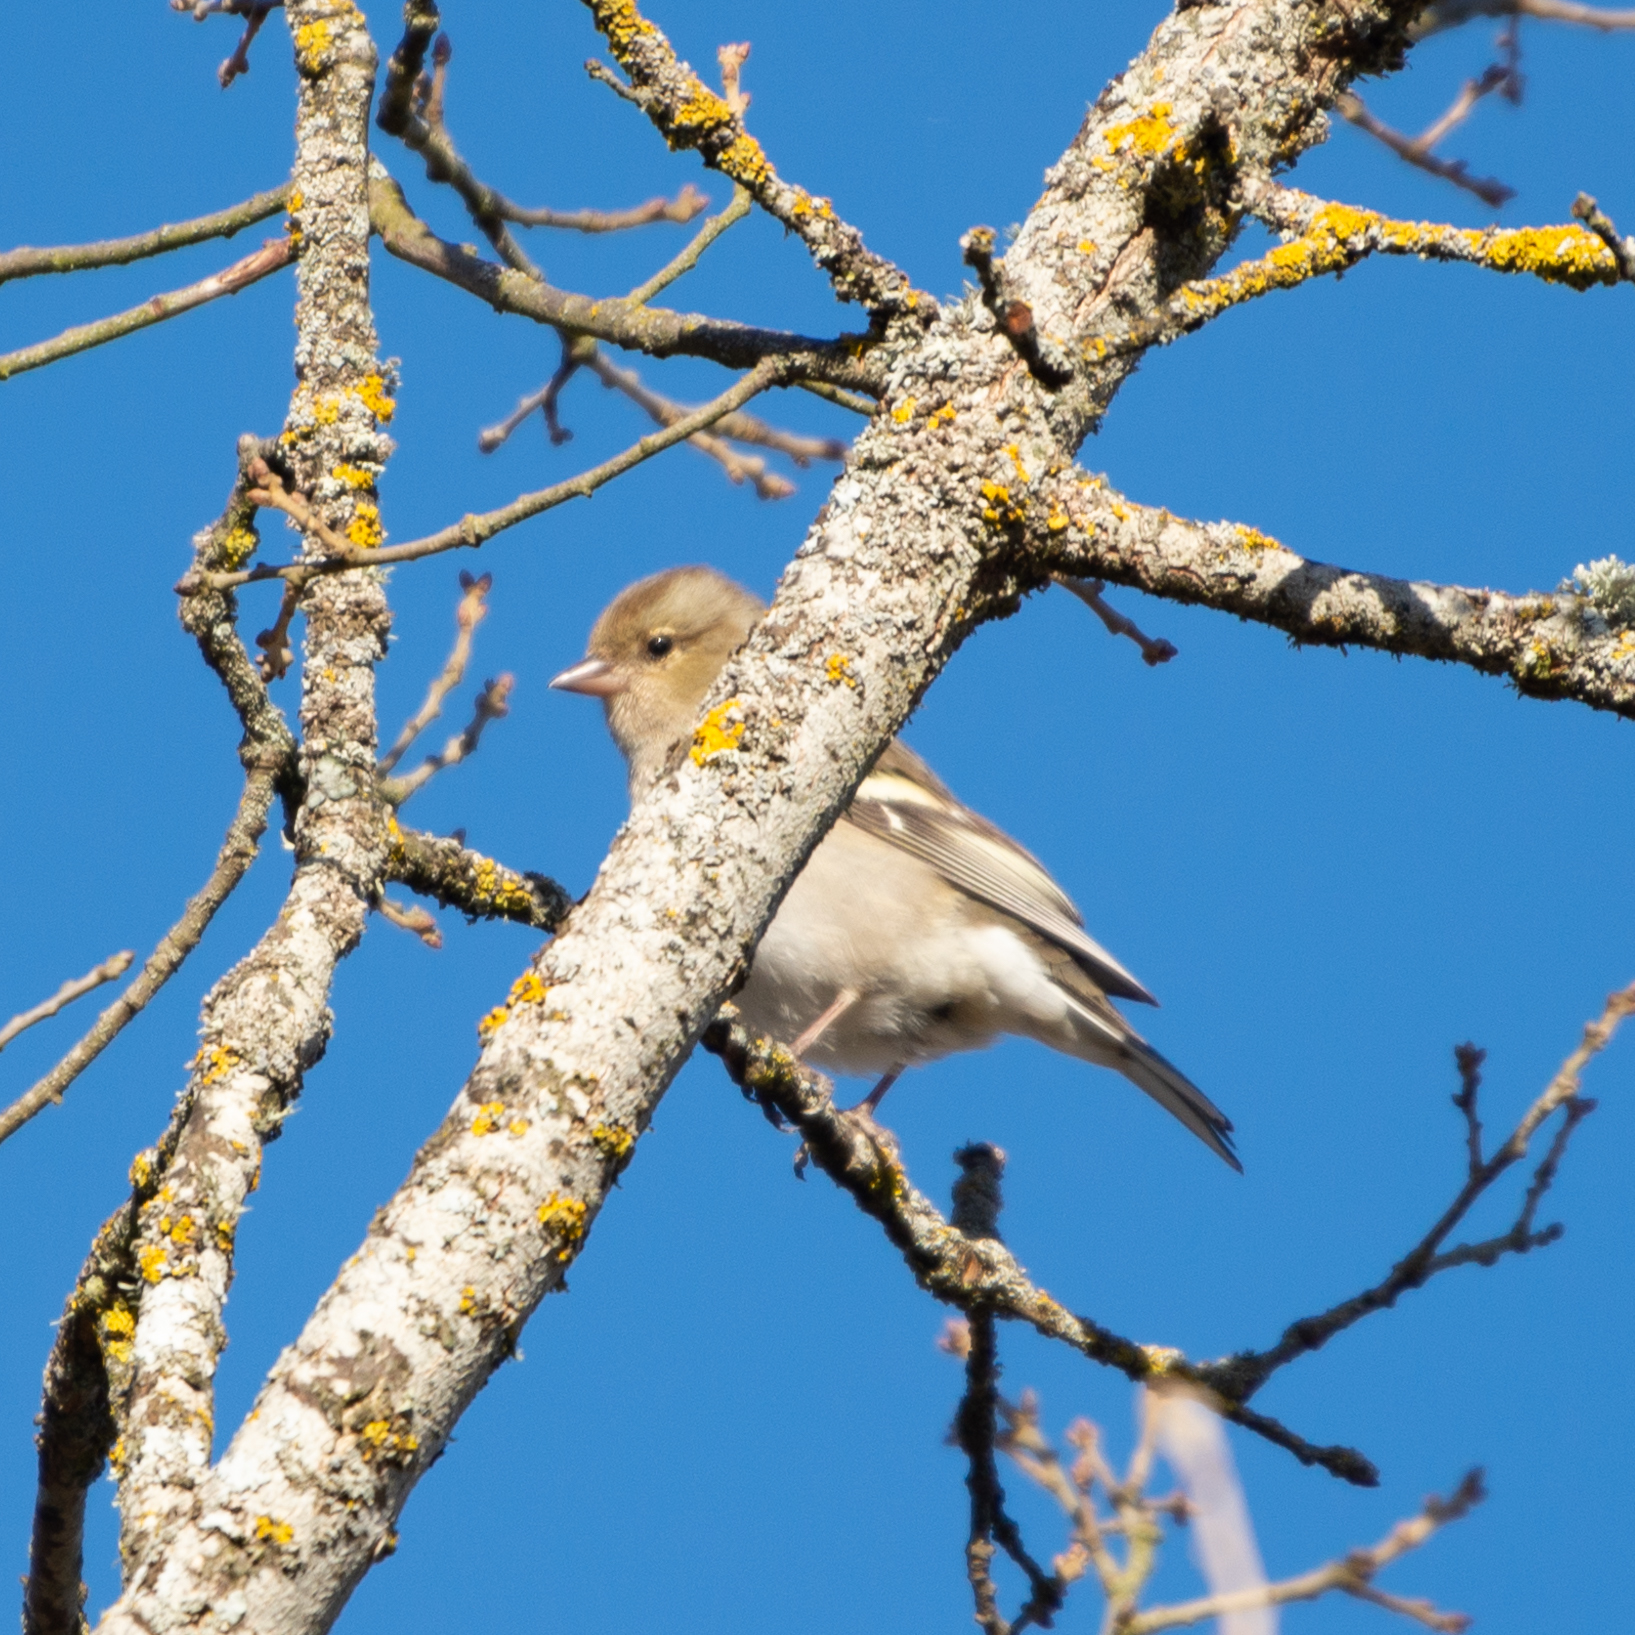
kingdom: Animalia
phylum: Chordata
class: Aves
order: Passeriformes
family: Fringillidae
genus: Fringilla
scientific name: Fringilla coelebs
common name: Common chaffinch
